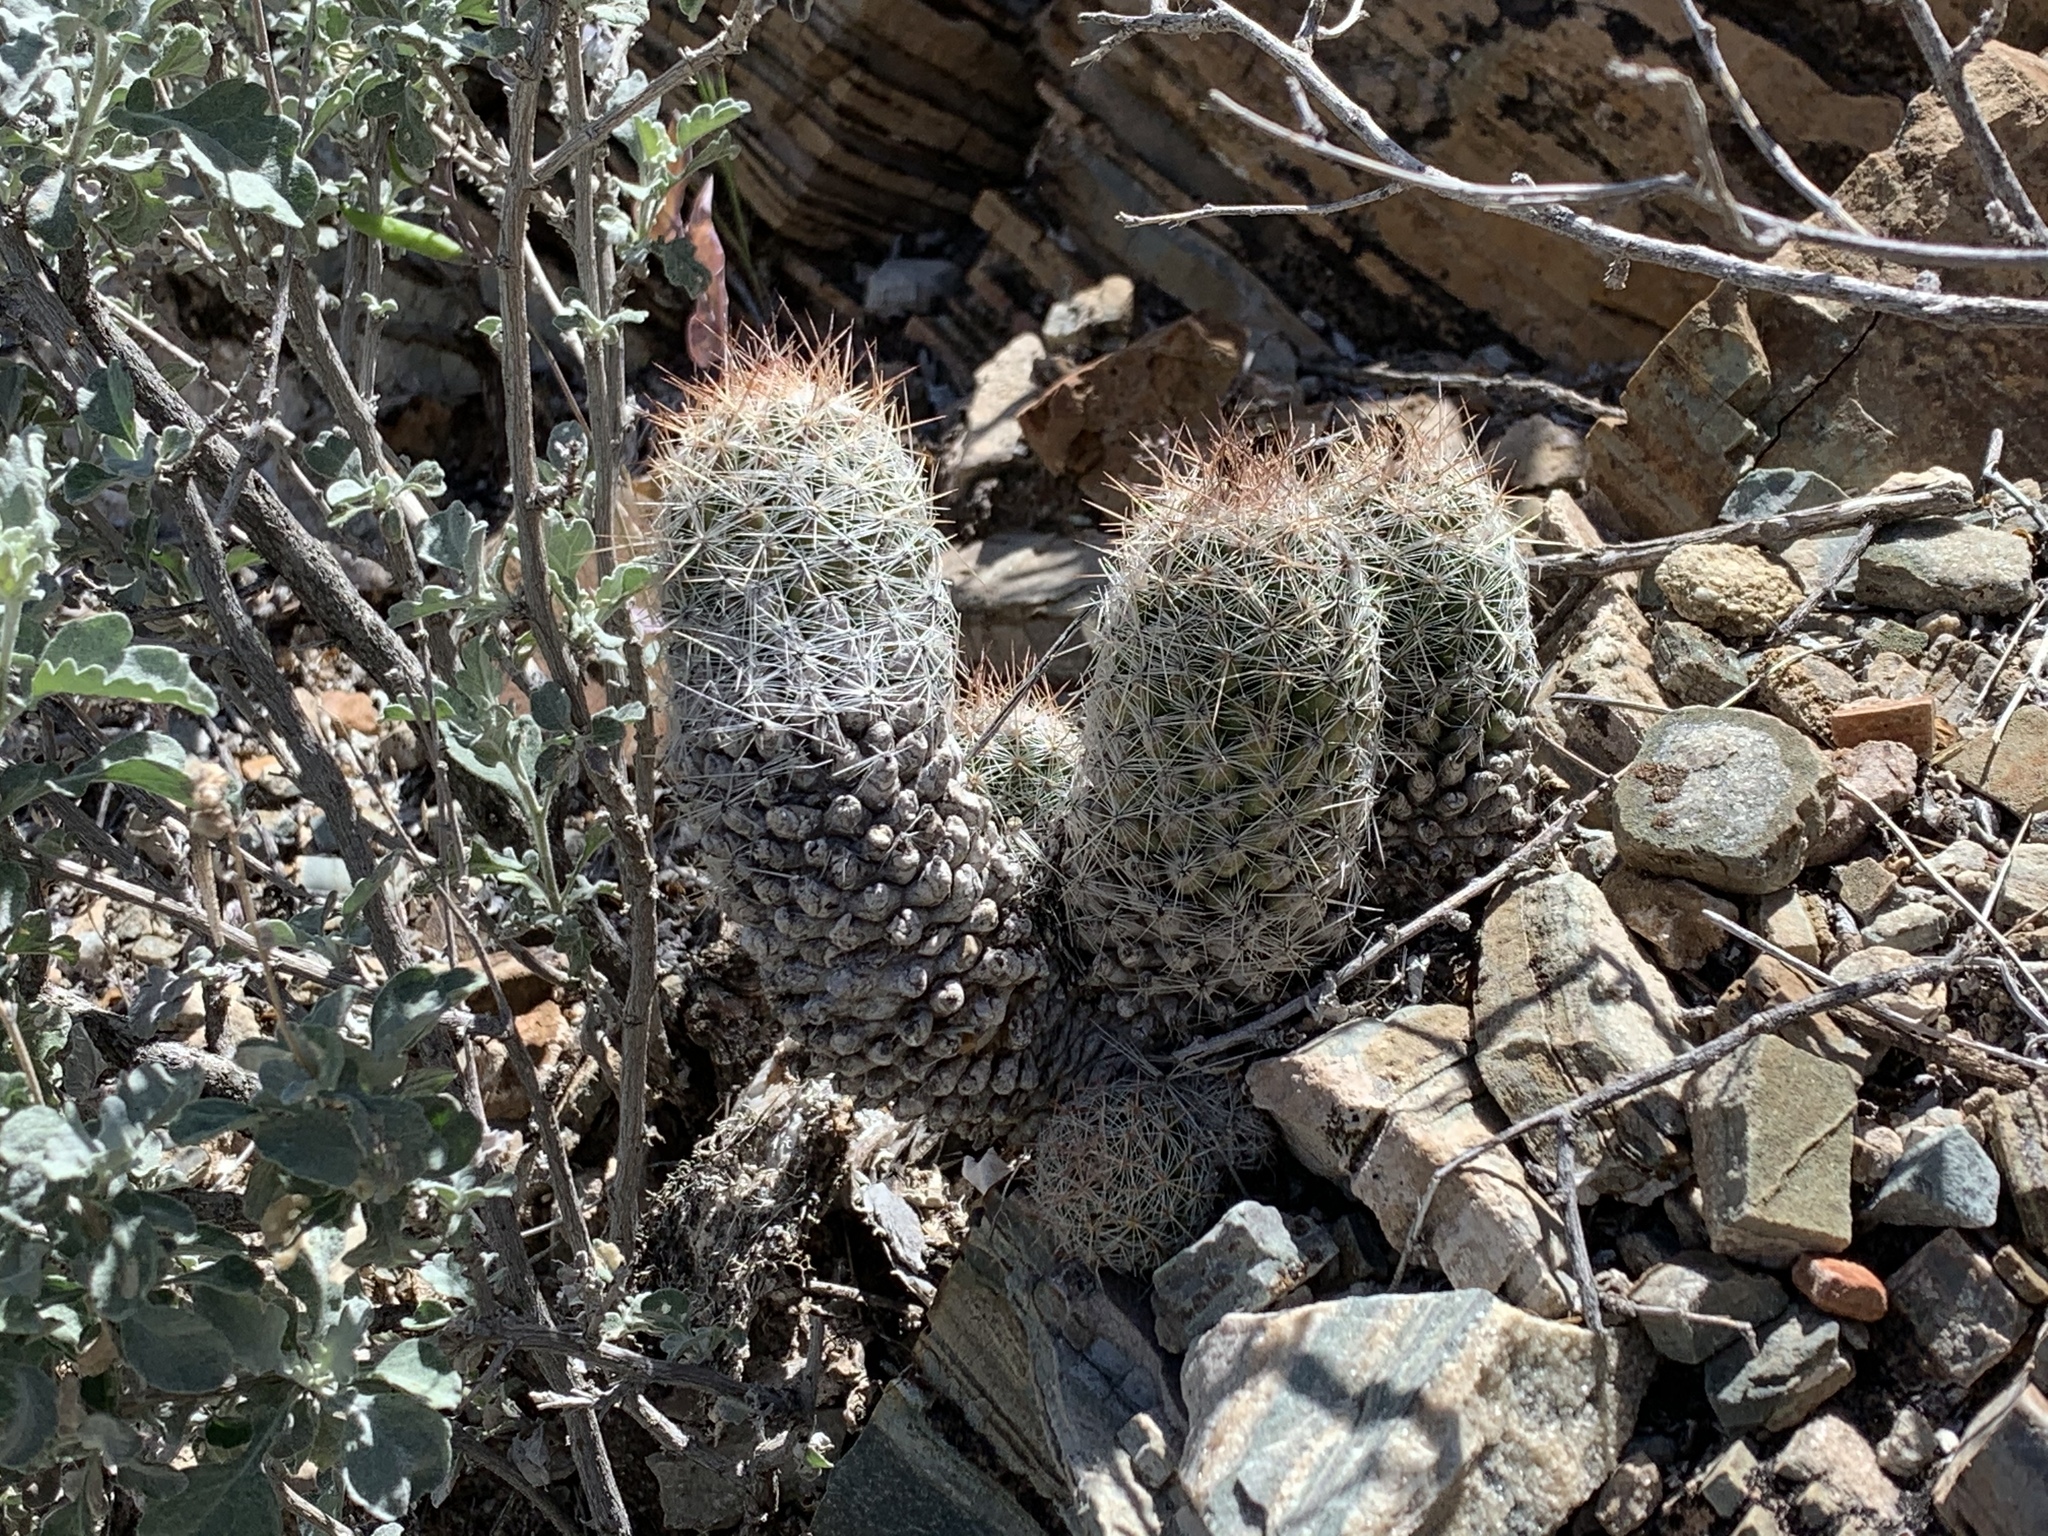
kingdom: Plantae
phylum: Tracheophyta
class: Magnoliopsida
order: Caryophyllales
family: Cactaceae
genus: Pelecyphora
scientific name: Pelecyphora tuberculosa
